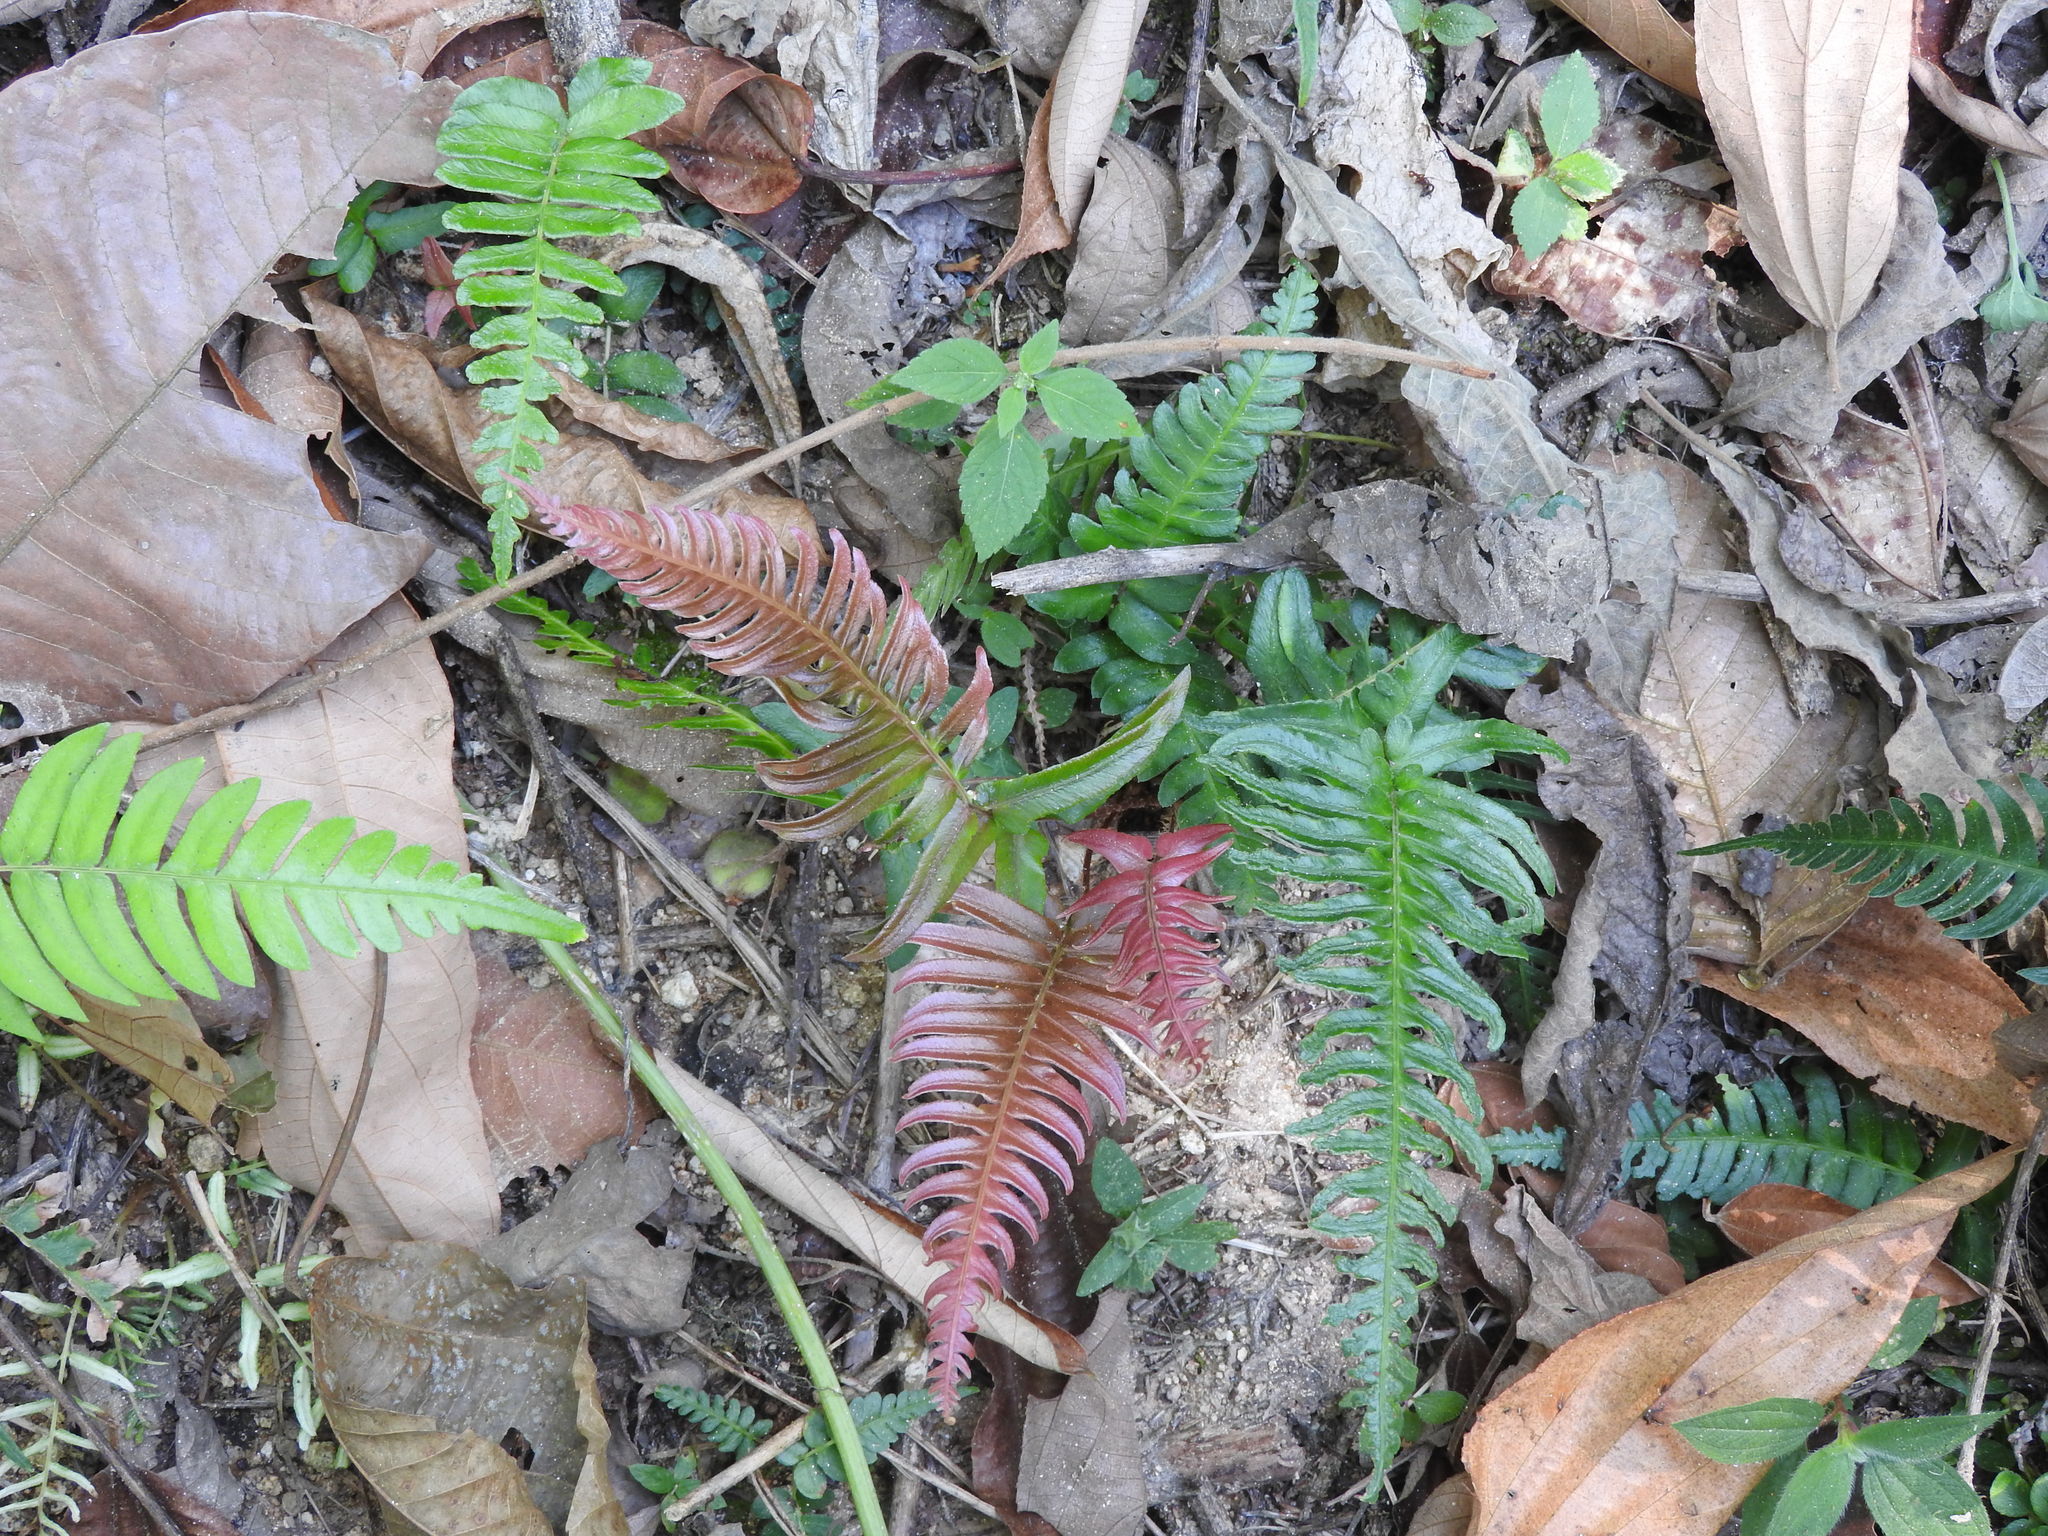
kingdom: Plantae
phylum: Tracheophyta
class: Polypodiopsida
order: Polypodiales
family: Blechnaceae
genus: Blechnum
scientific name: Blechnum occidentale
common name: Hammock fern
